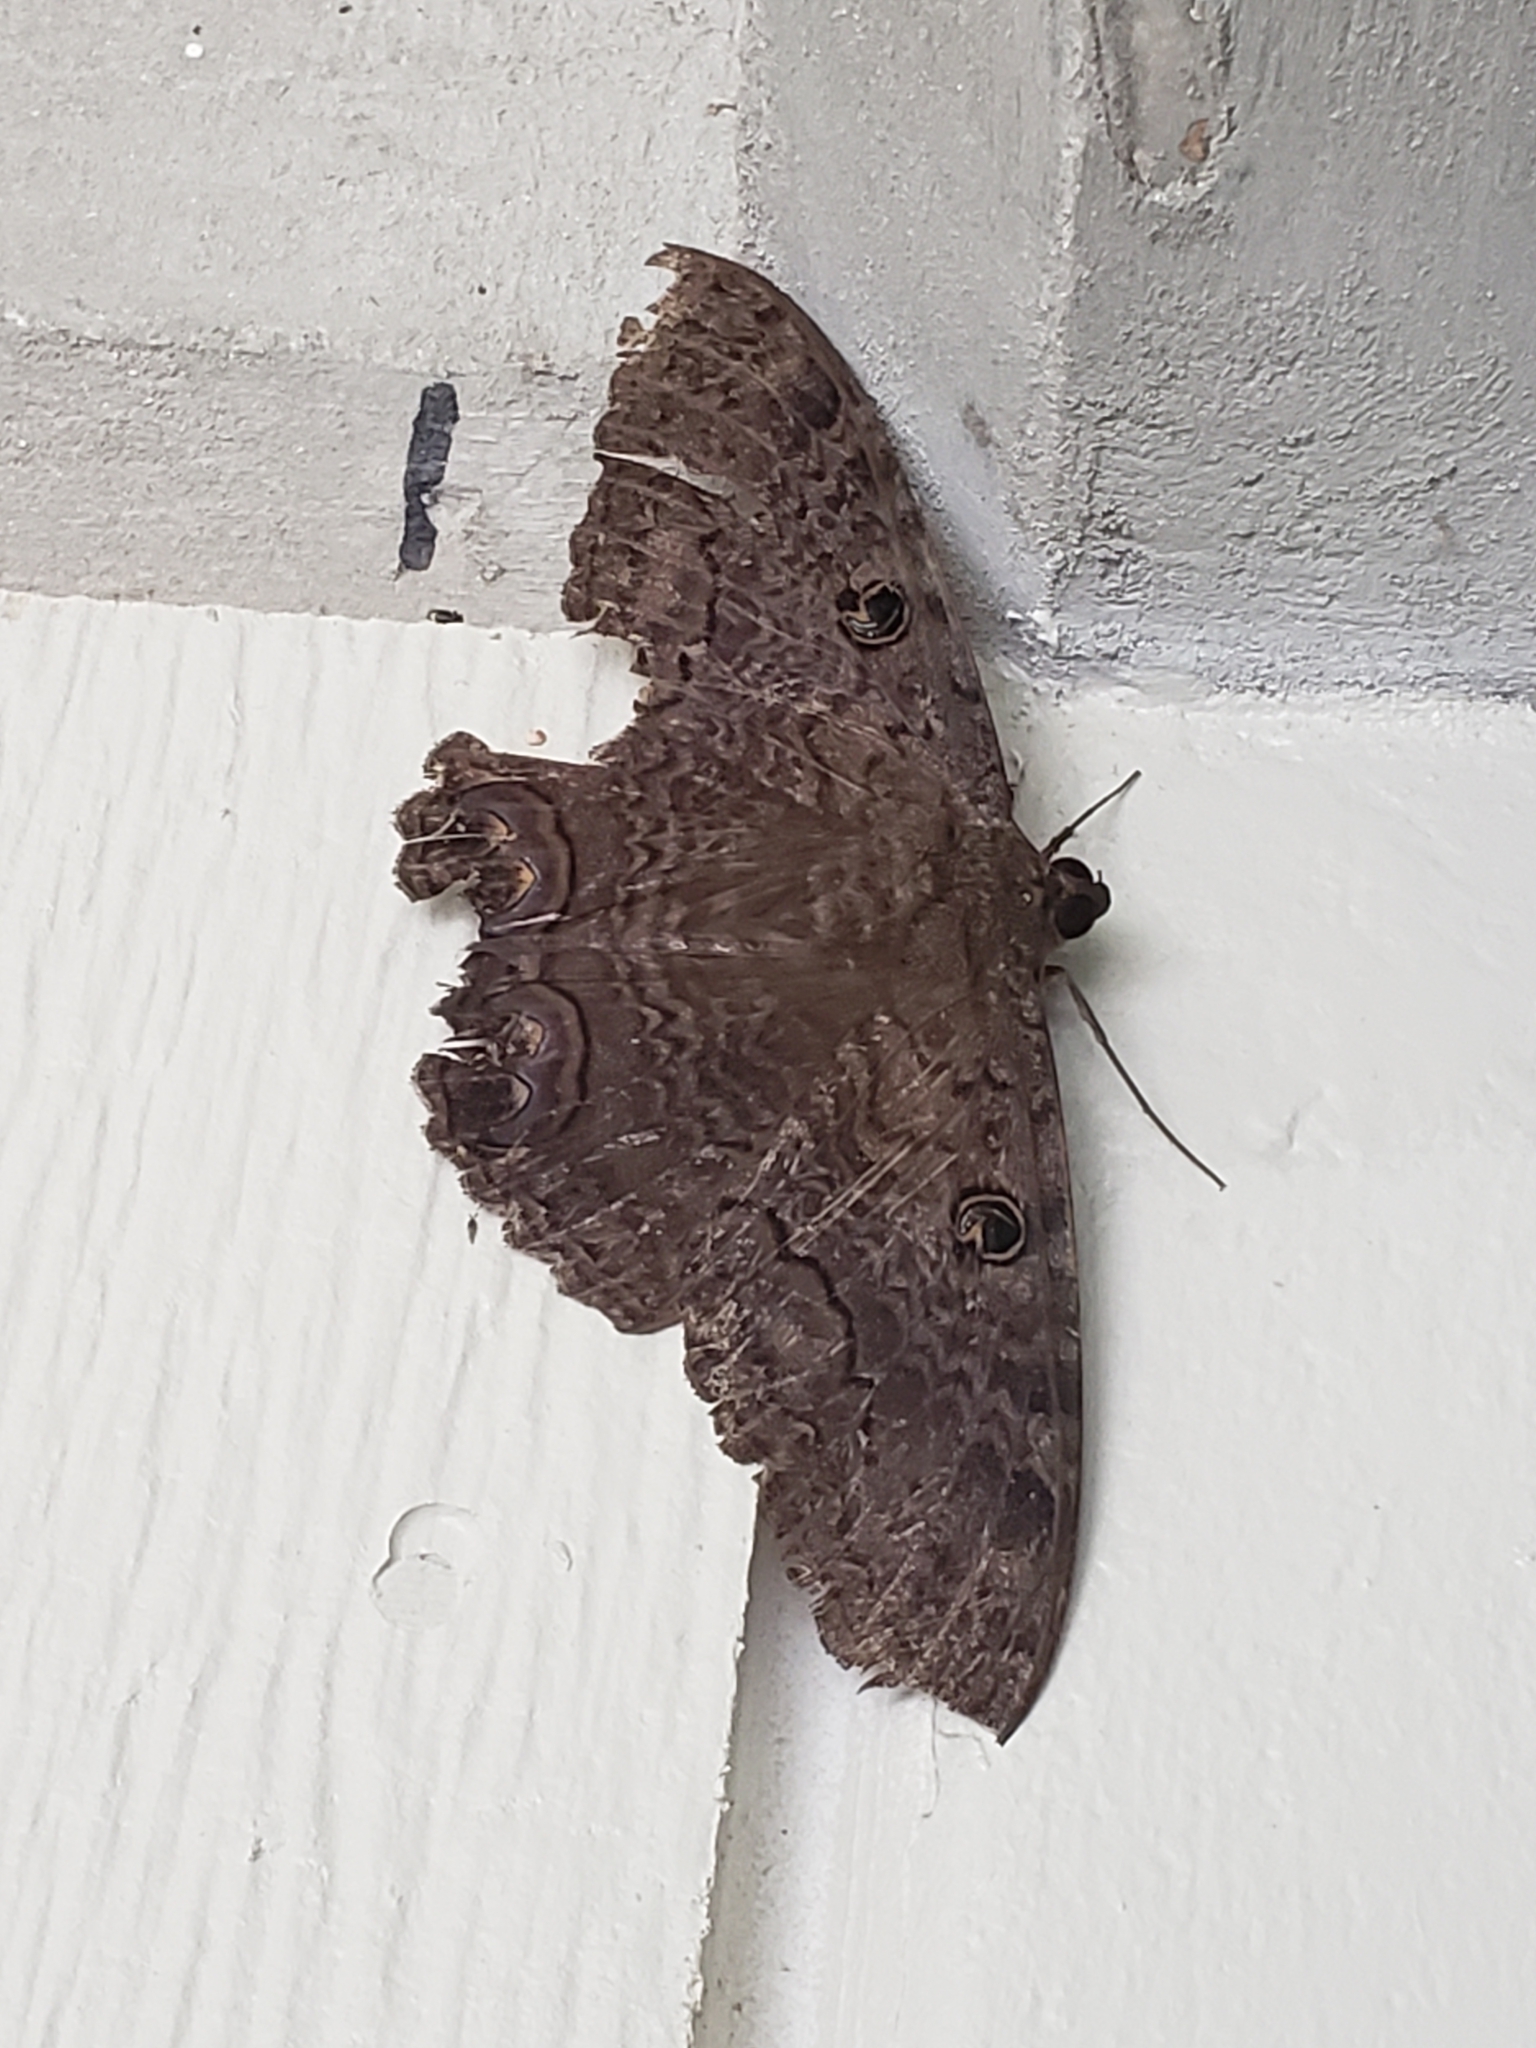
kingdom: Animalia
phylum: Arthropoda
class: Insecta
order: Lepidoptera
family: Erebidae
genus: Ascalapha
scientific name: Ascalapha odorata
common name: Black witch
